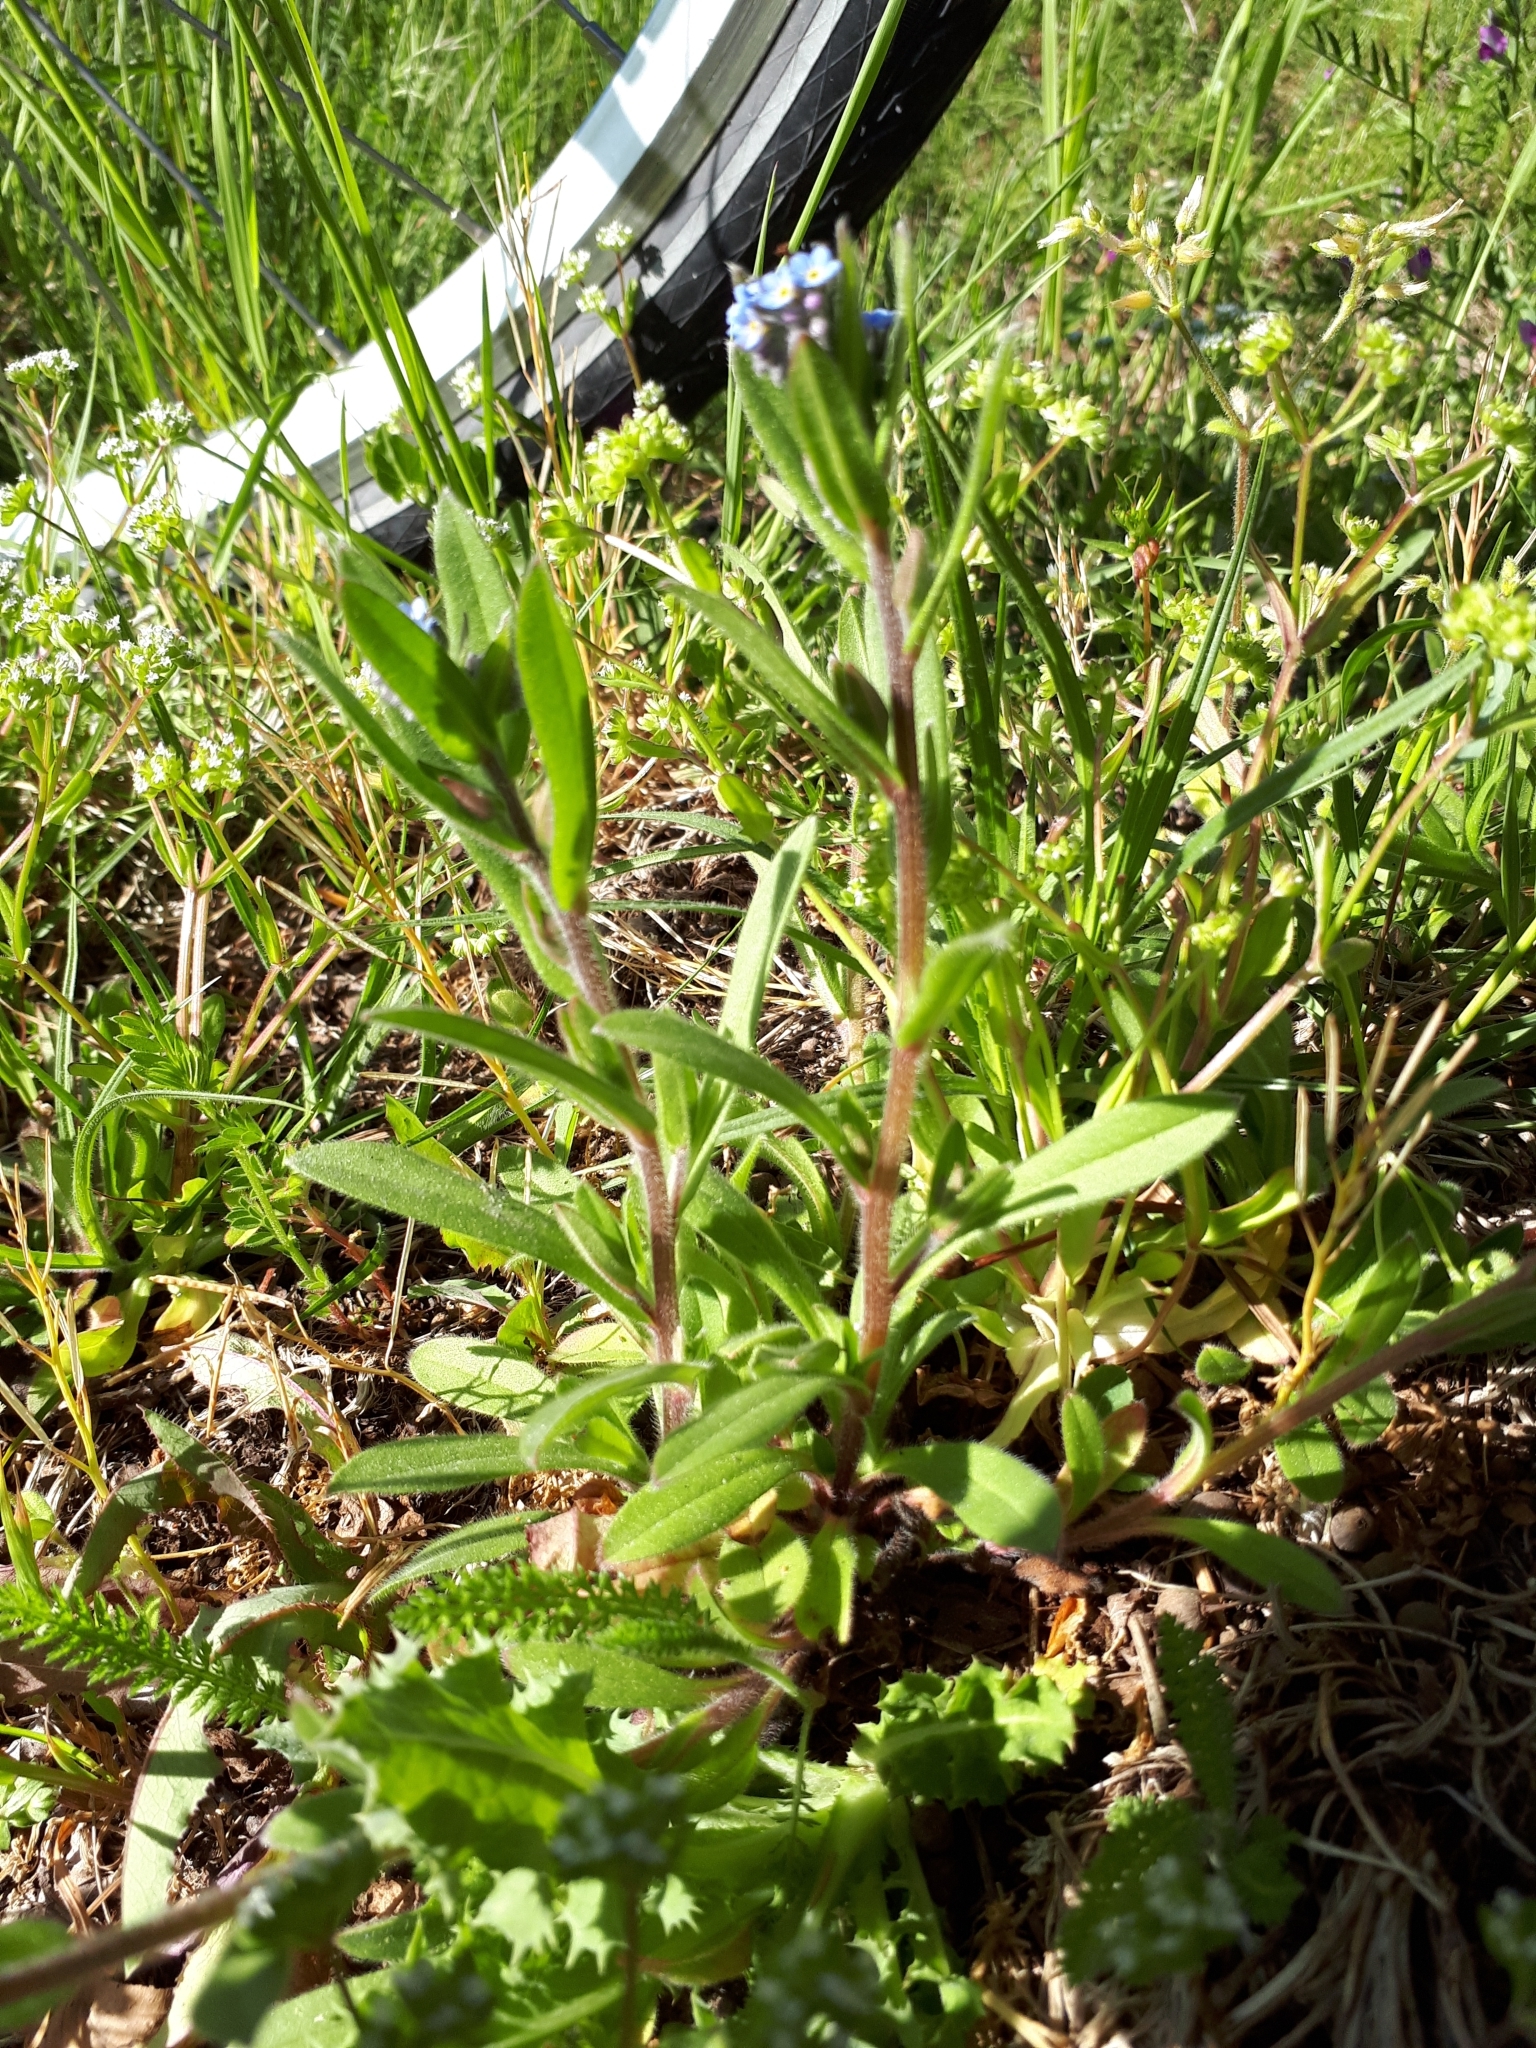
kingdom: Plantae
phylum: Tracheophyta
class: Magnoliopsida
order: Boraginales
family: Boraginaceae
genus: Myosotis
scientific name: Myosotis arvensis
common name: Field forget-me-not
